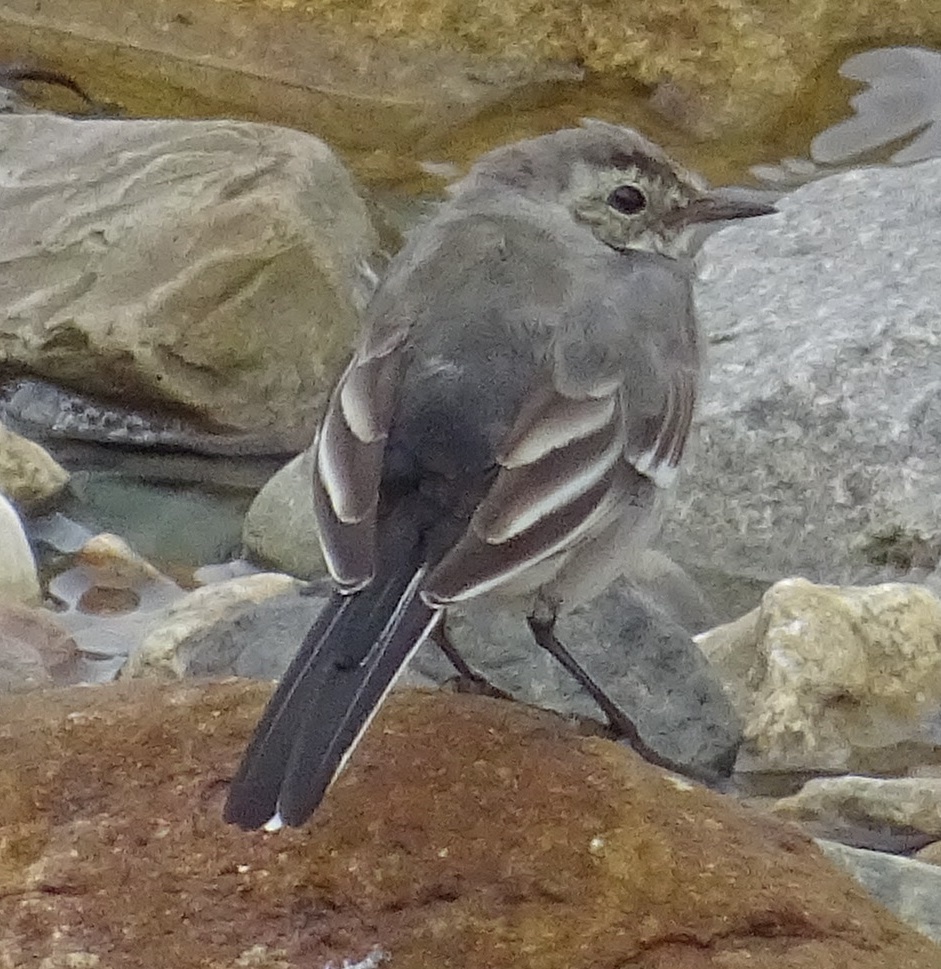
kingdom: Animalia
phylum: Chordata
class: Aves
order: Passeriformes
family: Motacillidae
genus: Motacilla
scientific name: Motacilla alba
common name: White wagtail
